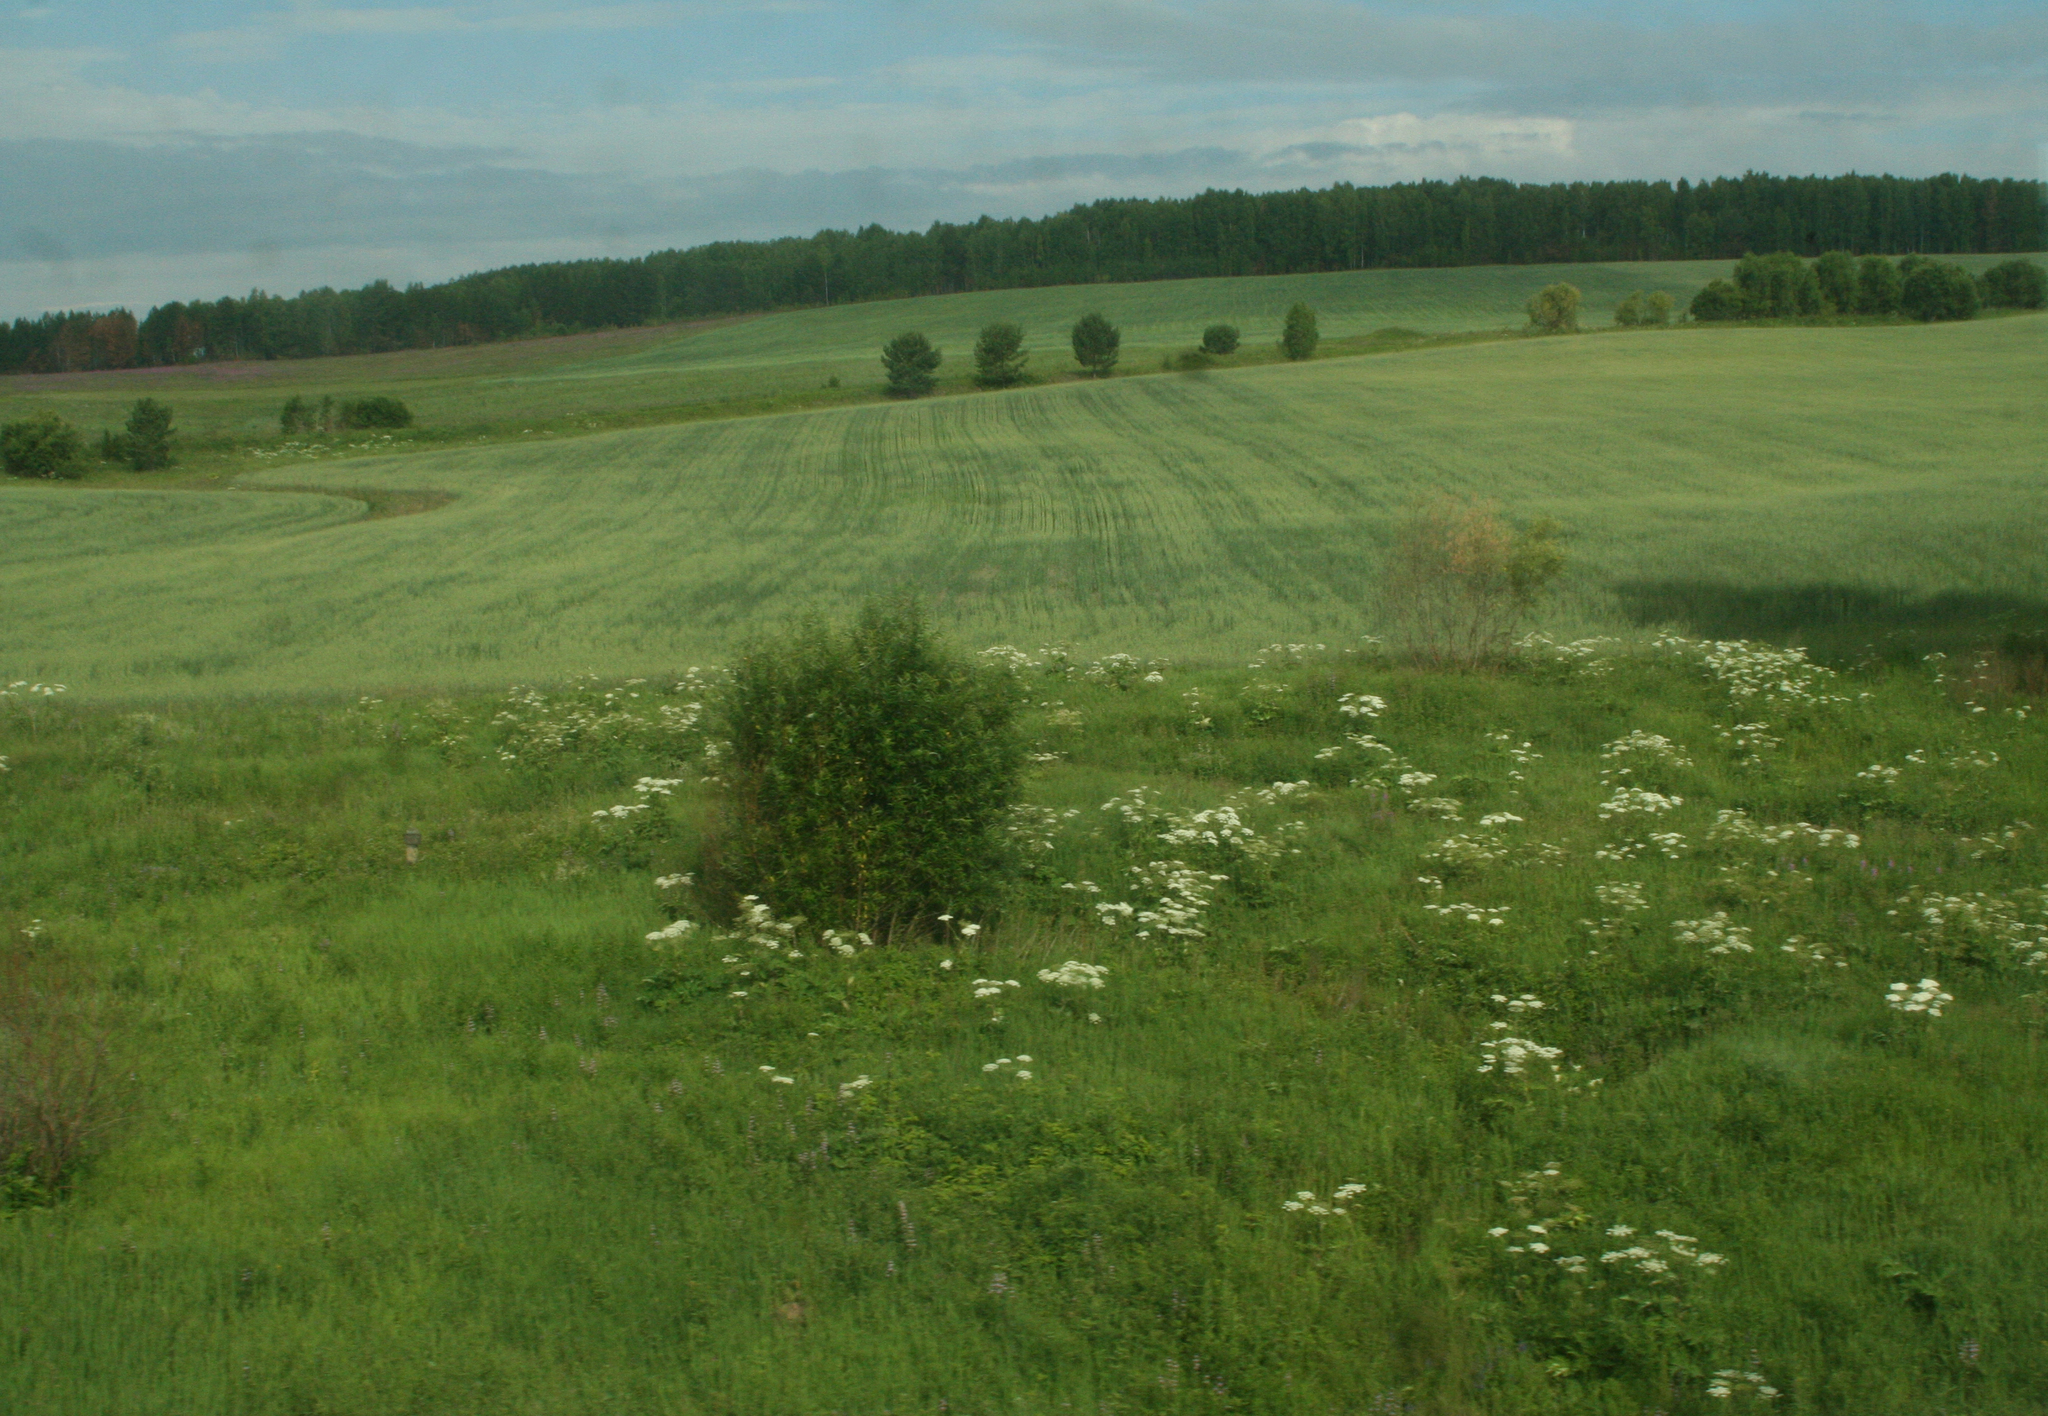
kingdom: Plantae
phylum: Tracheophyta
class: Magnoliopsida
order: Apiales
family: Apiaceae
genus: Heracleum
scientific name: Heracleum dissectum
